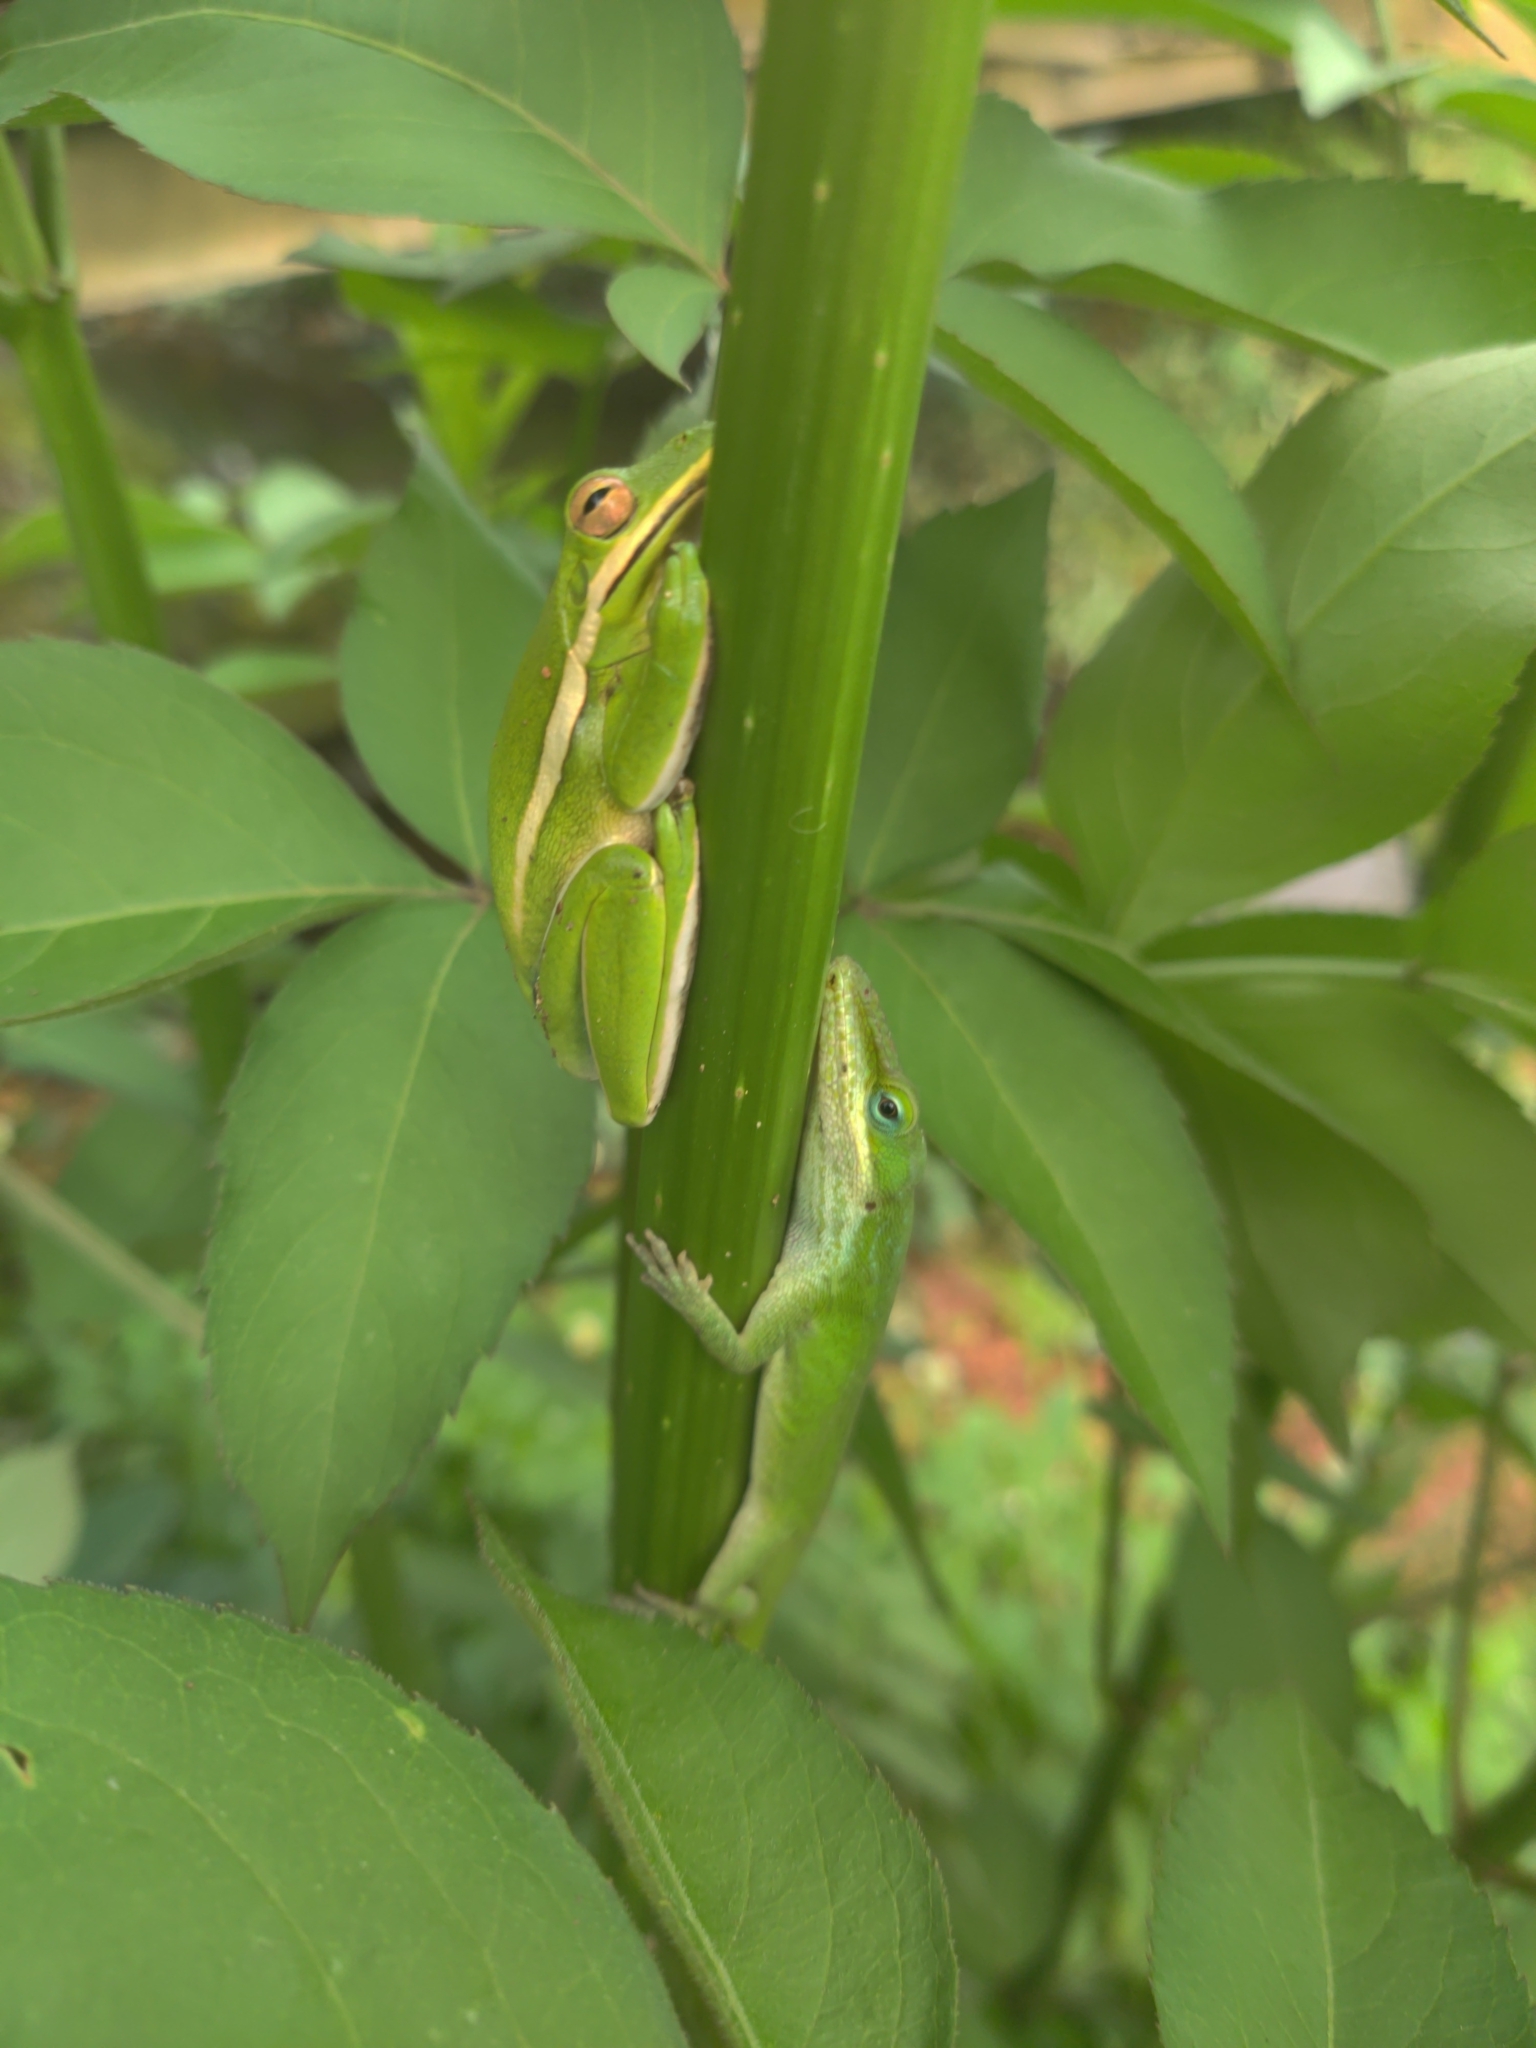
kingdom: Animalia
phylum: Chordata
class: Amphibia
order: Anura
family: Hylidae
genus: Dryophytes
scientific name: Dryophytes cinereus
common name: Green treefrog
